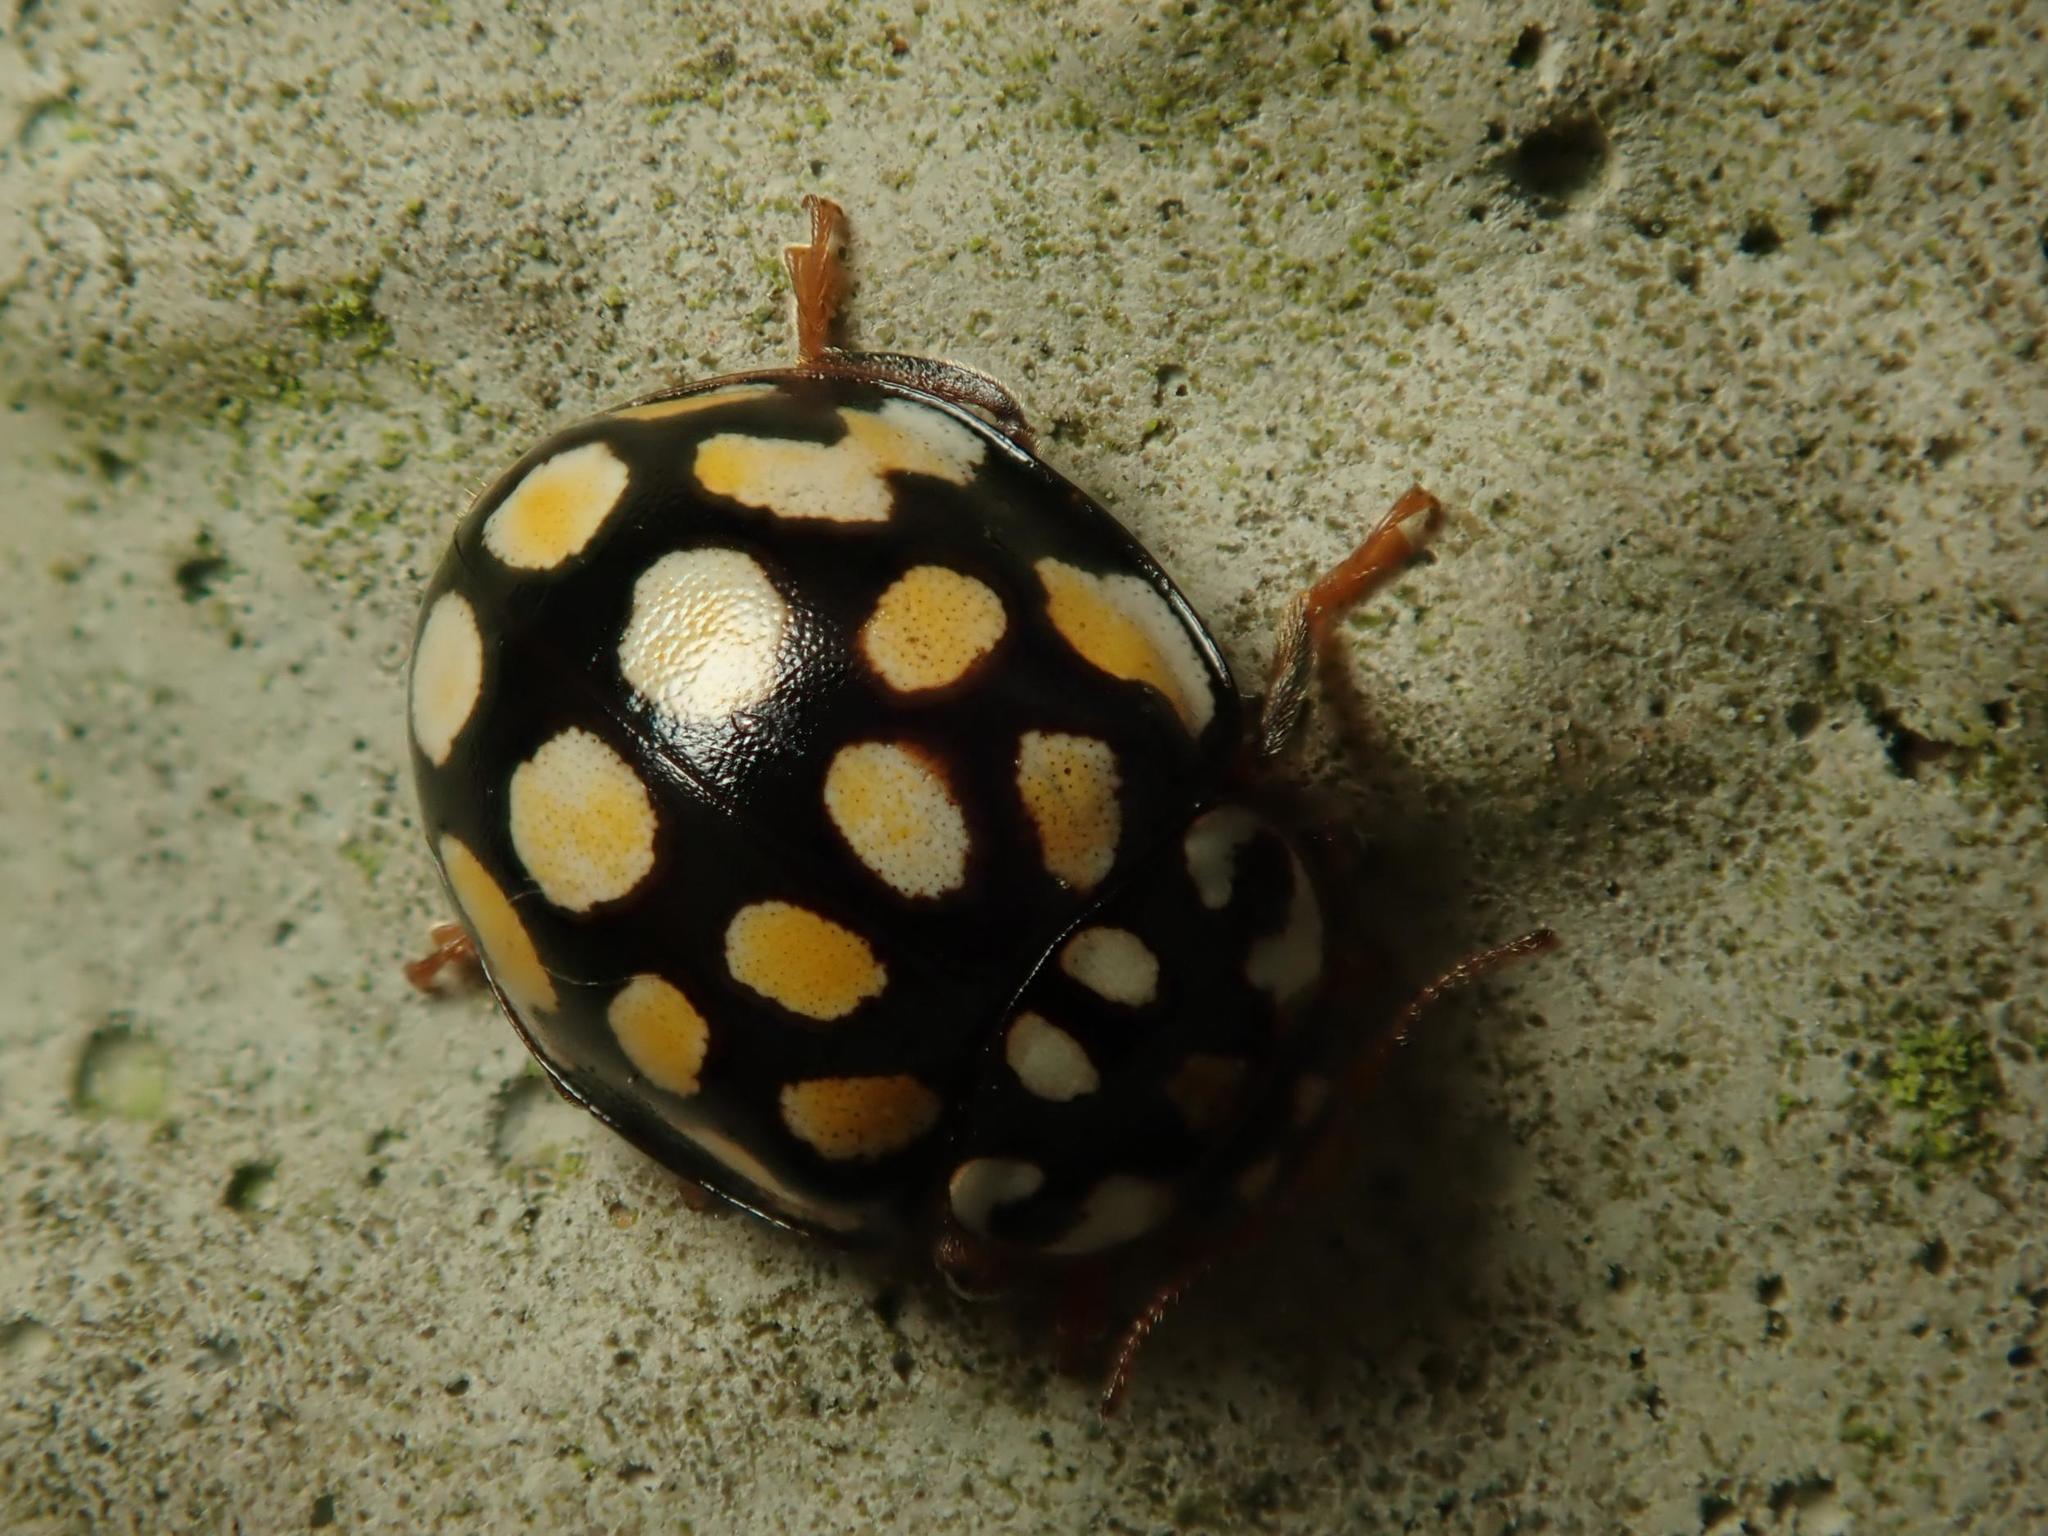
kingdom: Animalia
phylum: Arthropoda
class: Insecta
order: Coleoptera
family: Coccinellidae
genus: Sospita
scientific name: Sospita vigintiguttata
